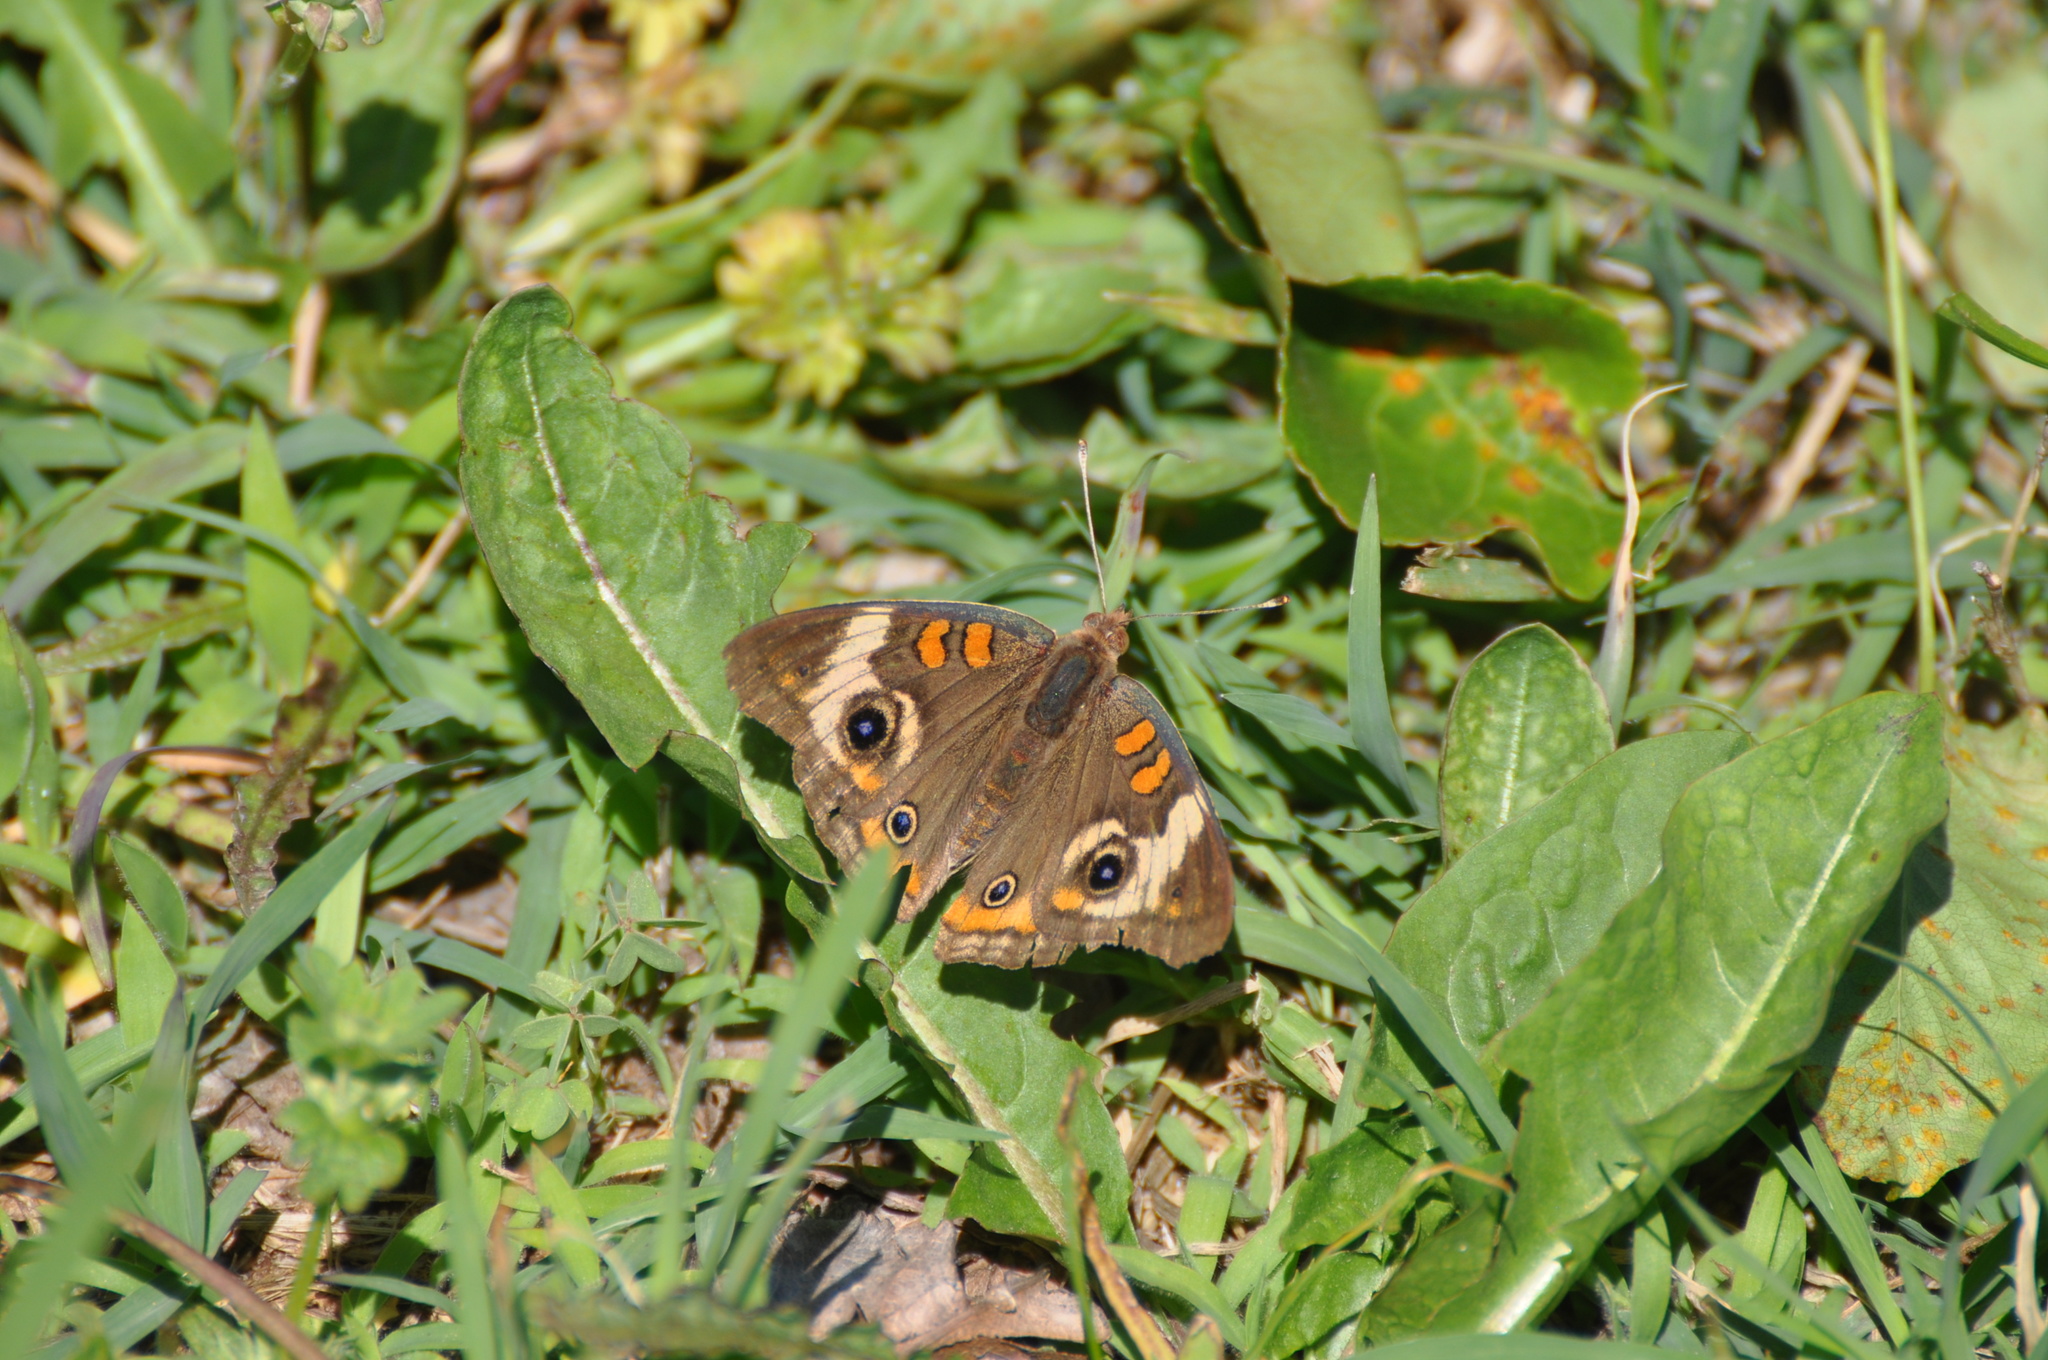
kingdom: Animalia
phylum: Arthropoda
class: Insecta
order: Lepidoptera
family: Nymphalidae
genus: Junonia
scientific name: Junonia coenia
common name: Common buckeye
